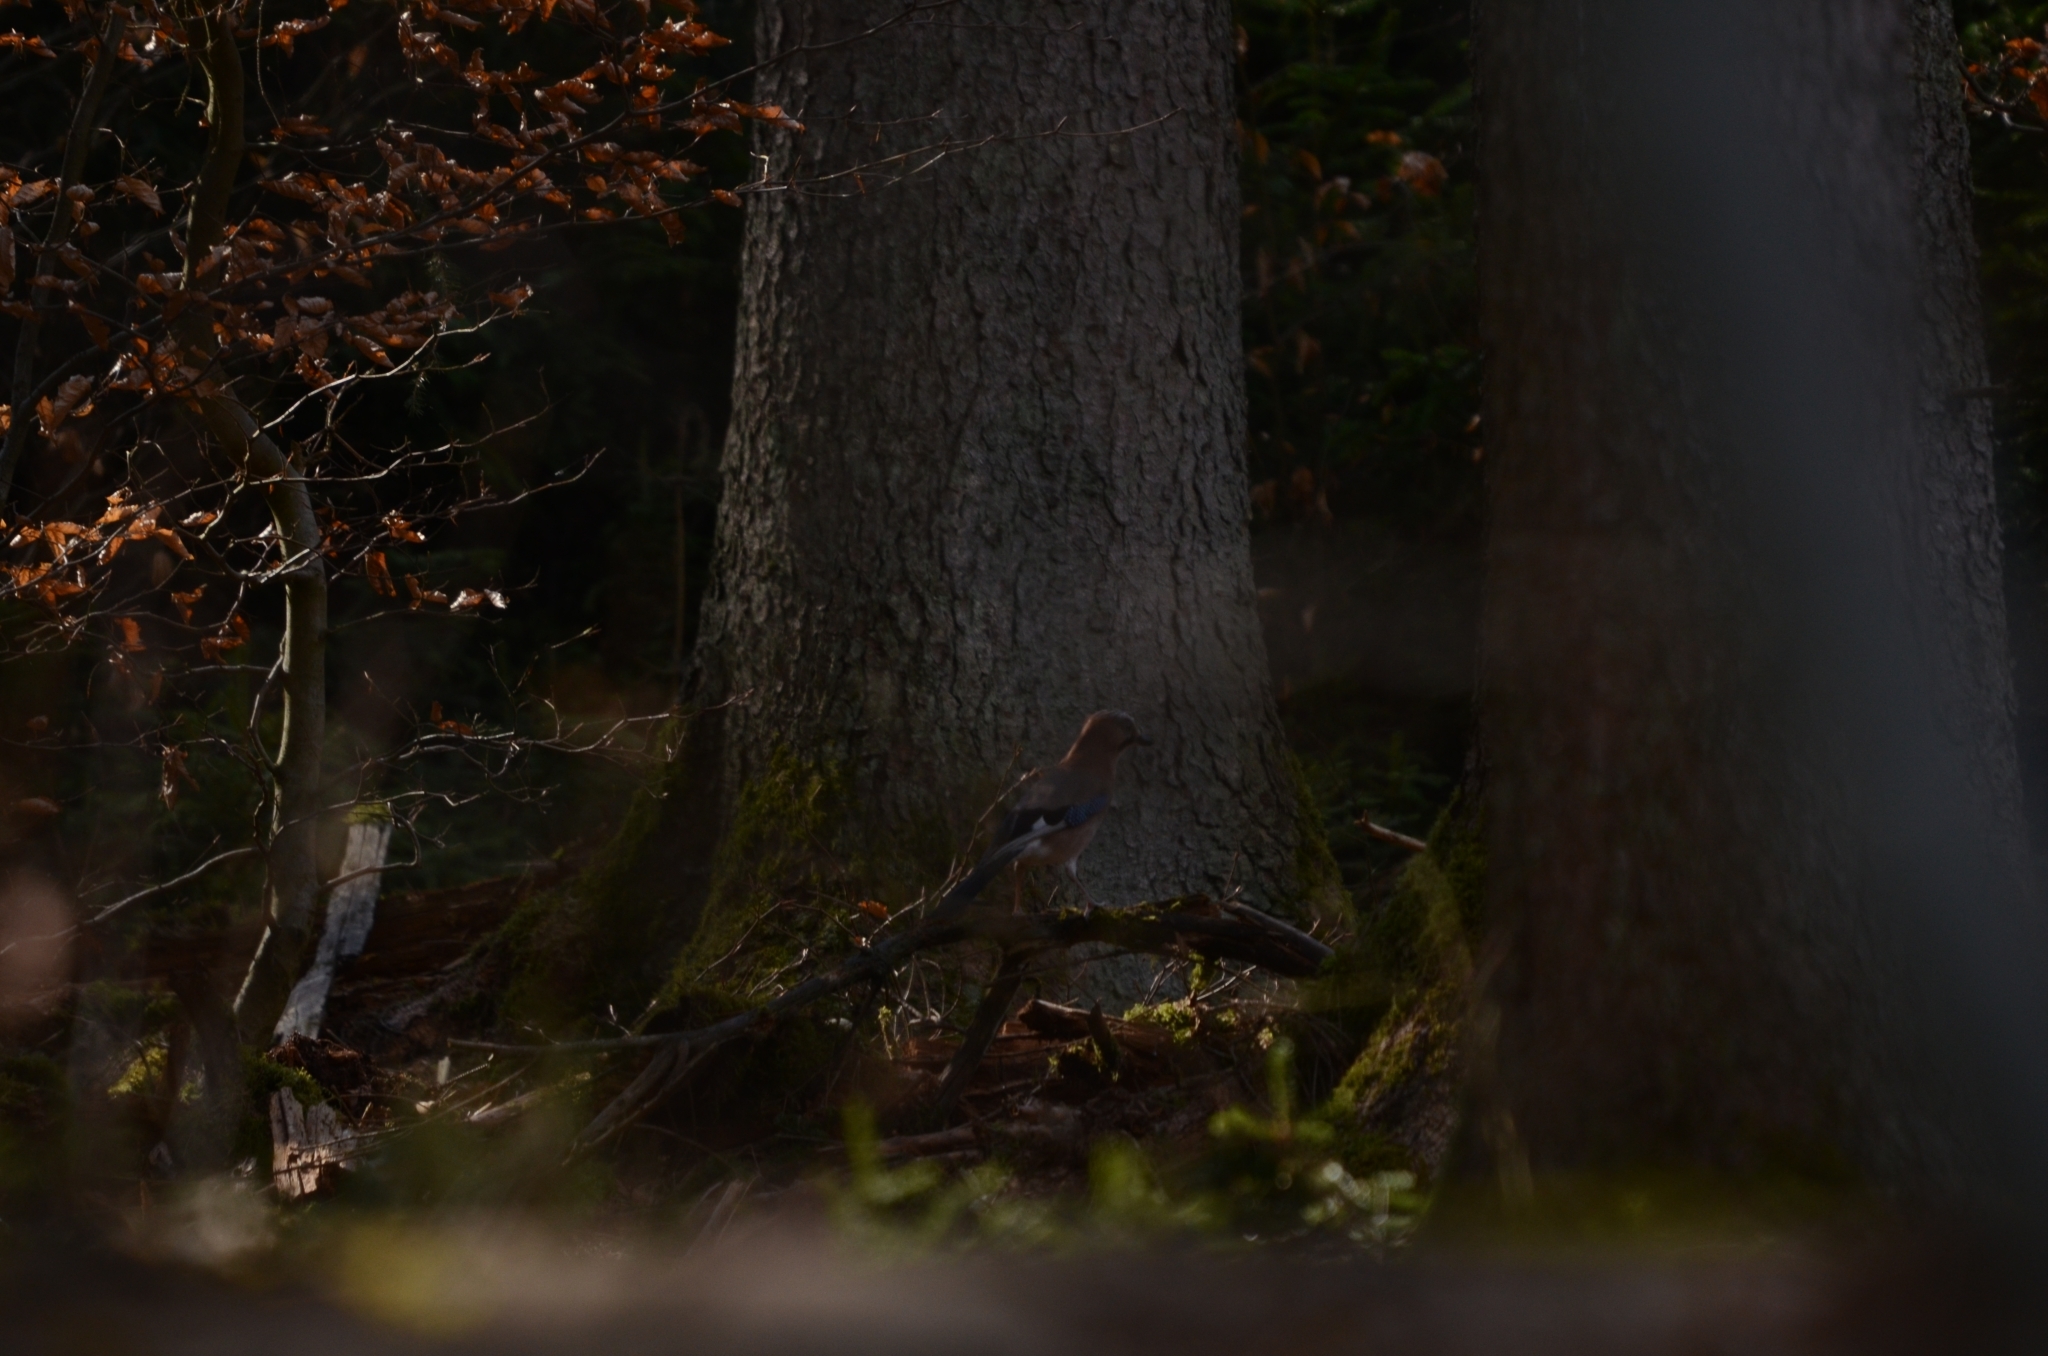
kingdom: Animalia
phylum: Chordata
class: Aves
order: Passeriformes
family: Corvidae
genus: Garrulus
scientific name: Garrulus glandarius
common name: Eurasian jay
